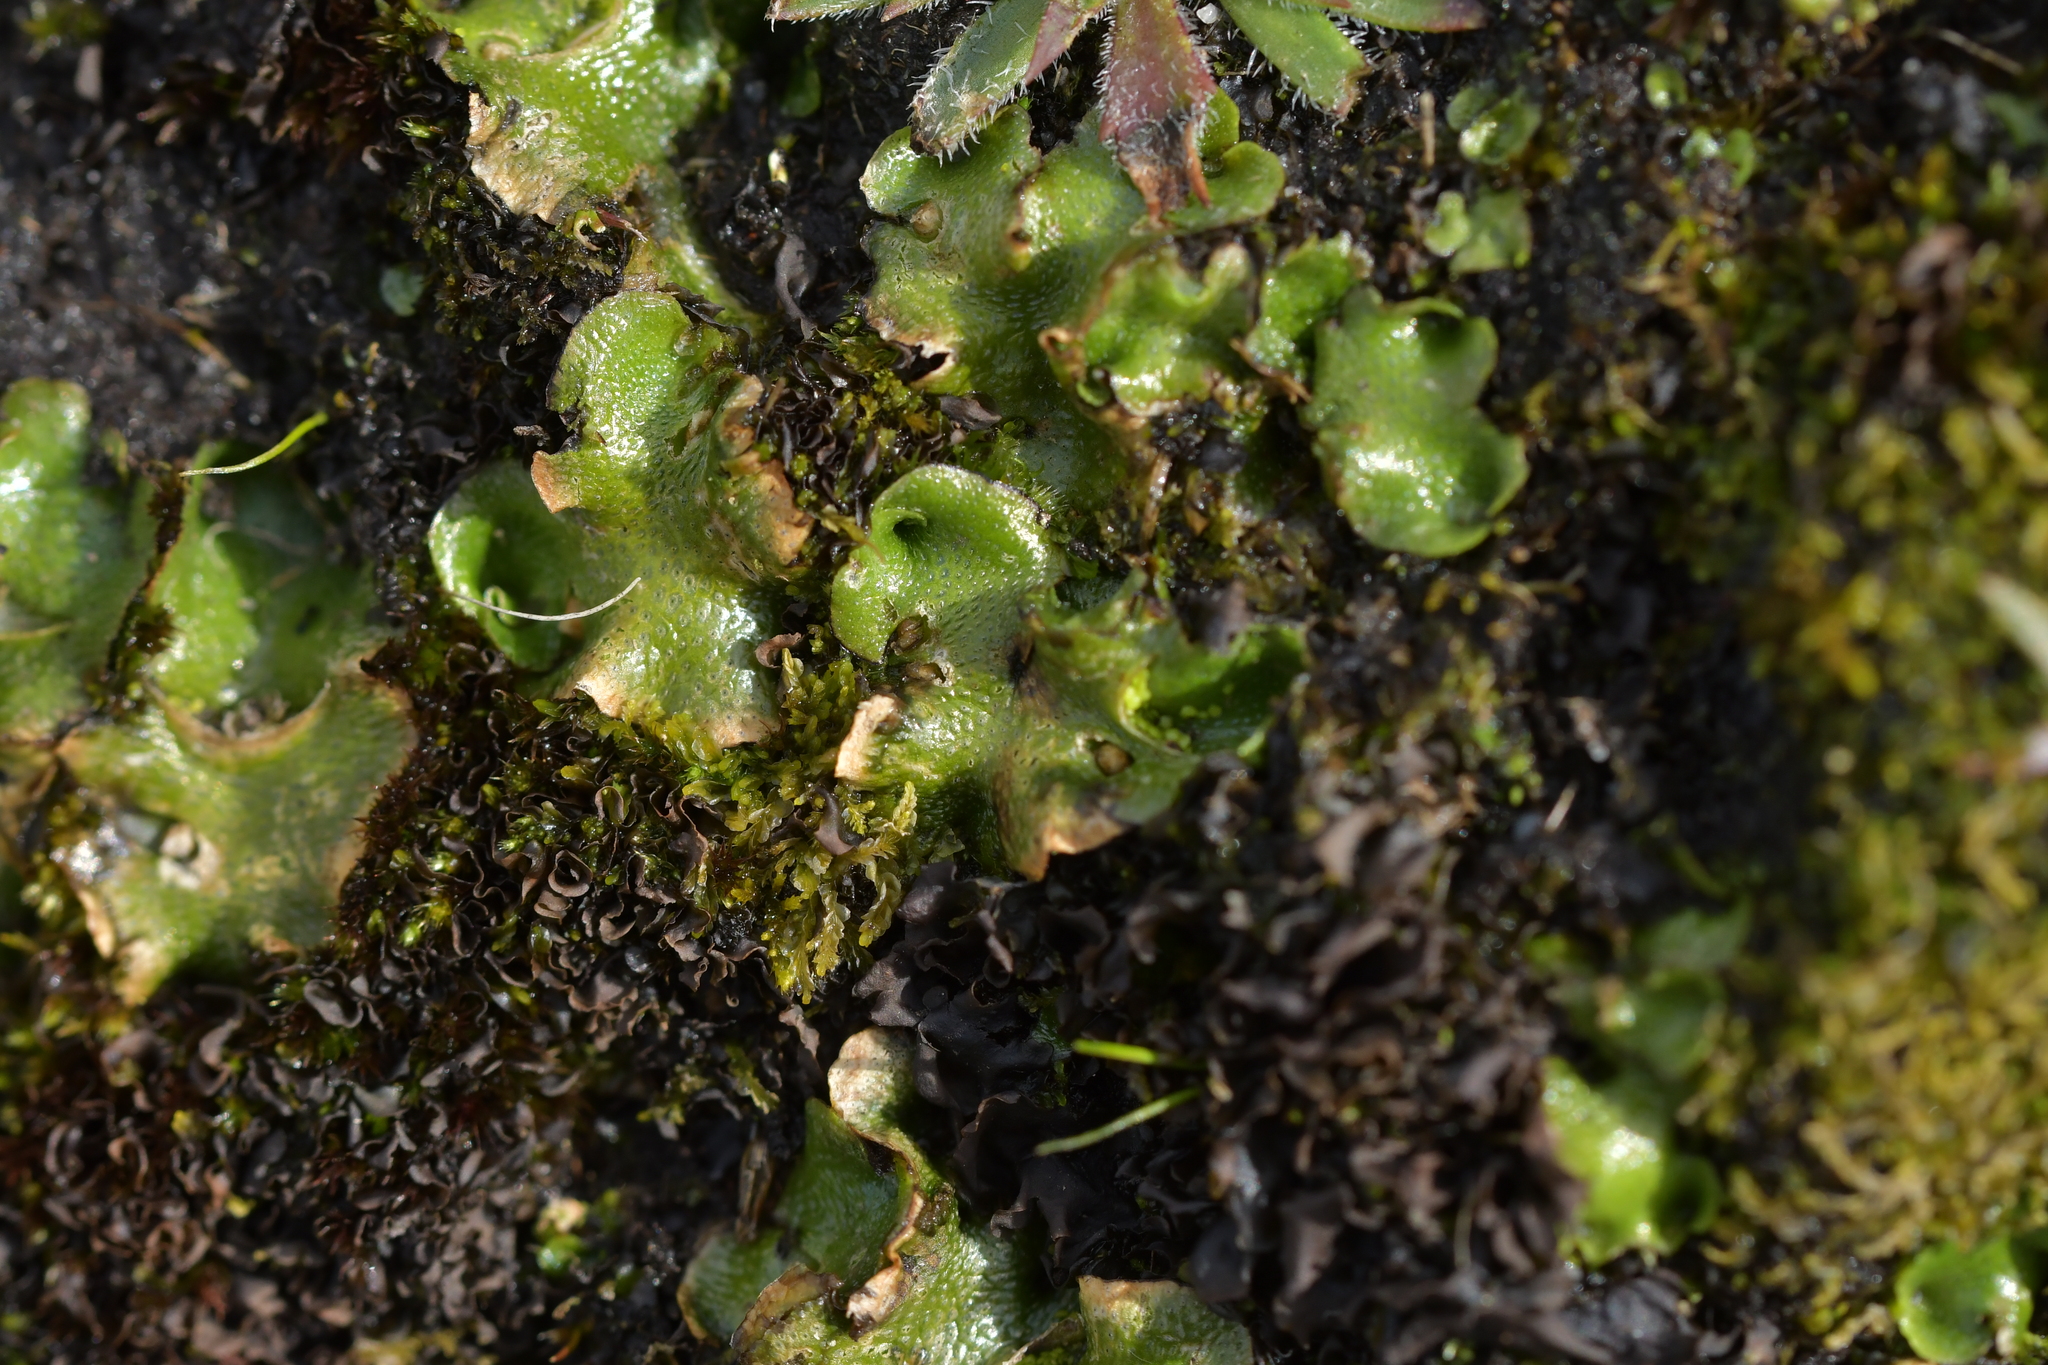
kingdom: Plantae
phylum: Marchantiophyta
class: Marchantiopsida
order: Lunulariales
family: Lunulariaceae
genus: Lunularia
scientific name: Lunularia cruciata
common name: Crescent-cup liverwort
